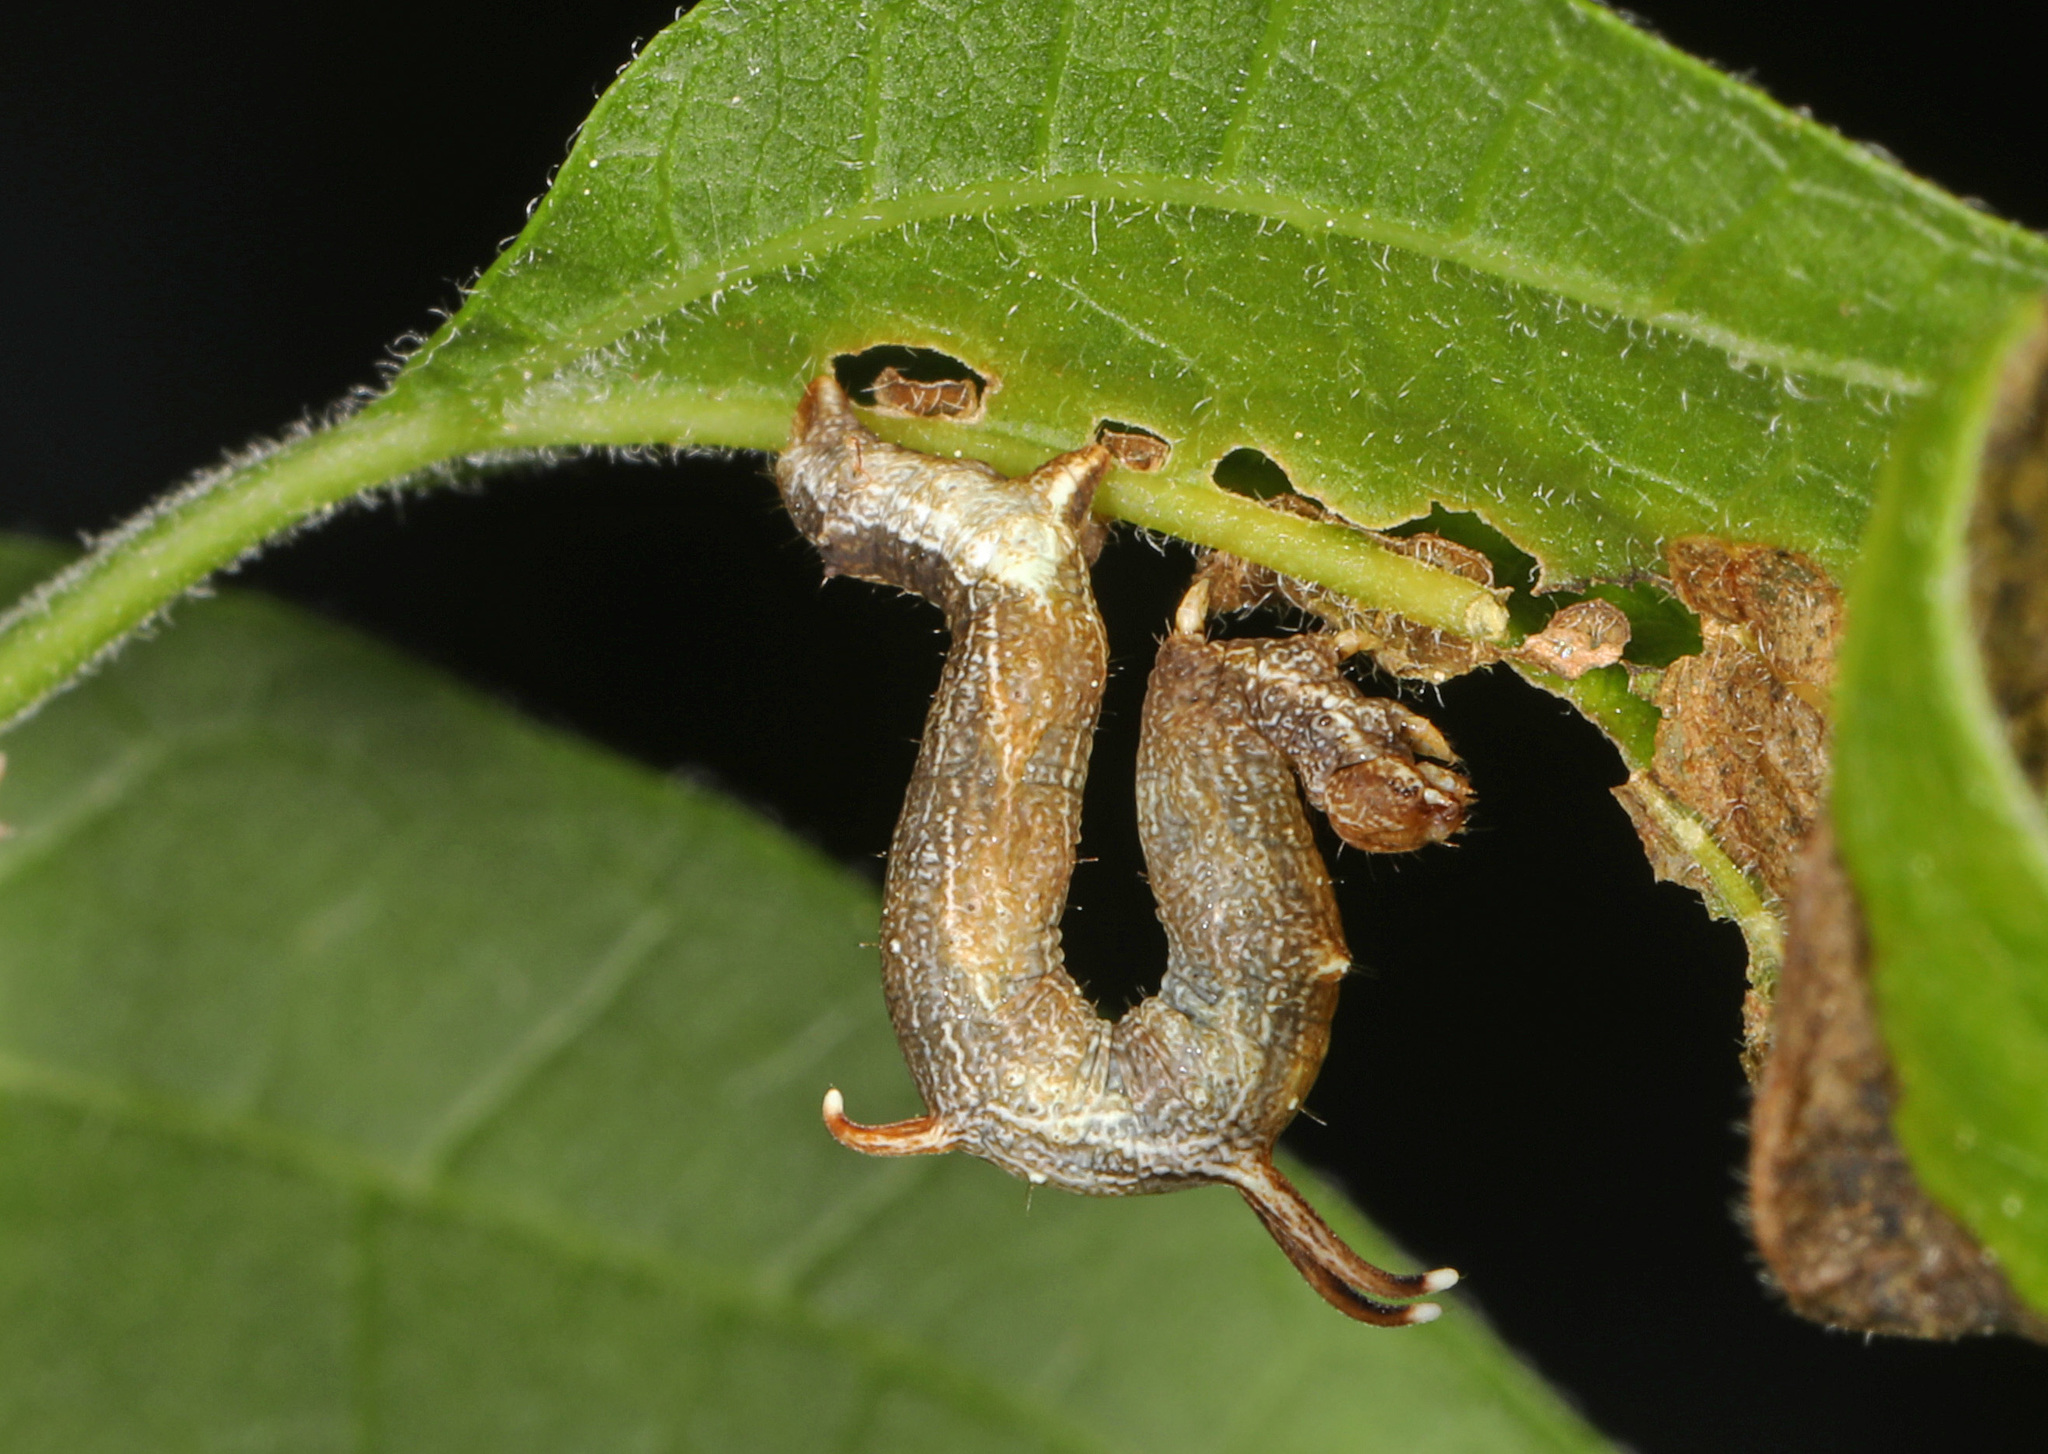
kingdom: Animalia
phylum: Arthropoda
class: Insecta
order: Lepidoptera
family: Geometridae
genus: Nematocampa
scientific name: Nematocampa resistaria
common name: Horned spanworm moth
